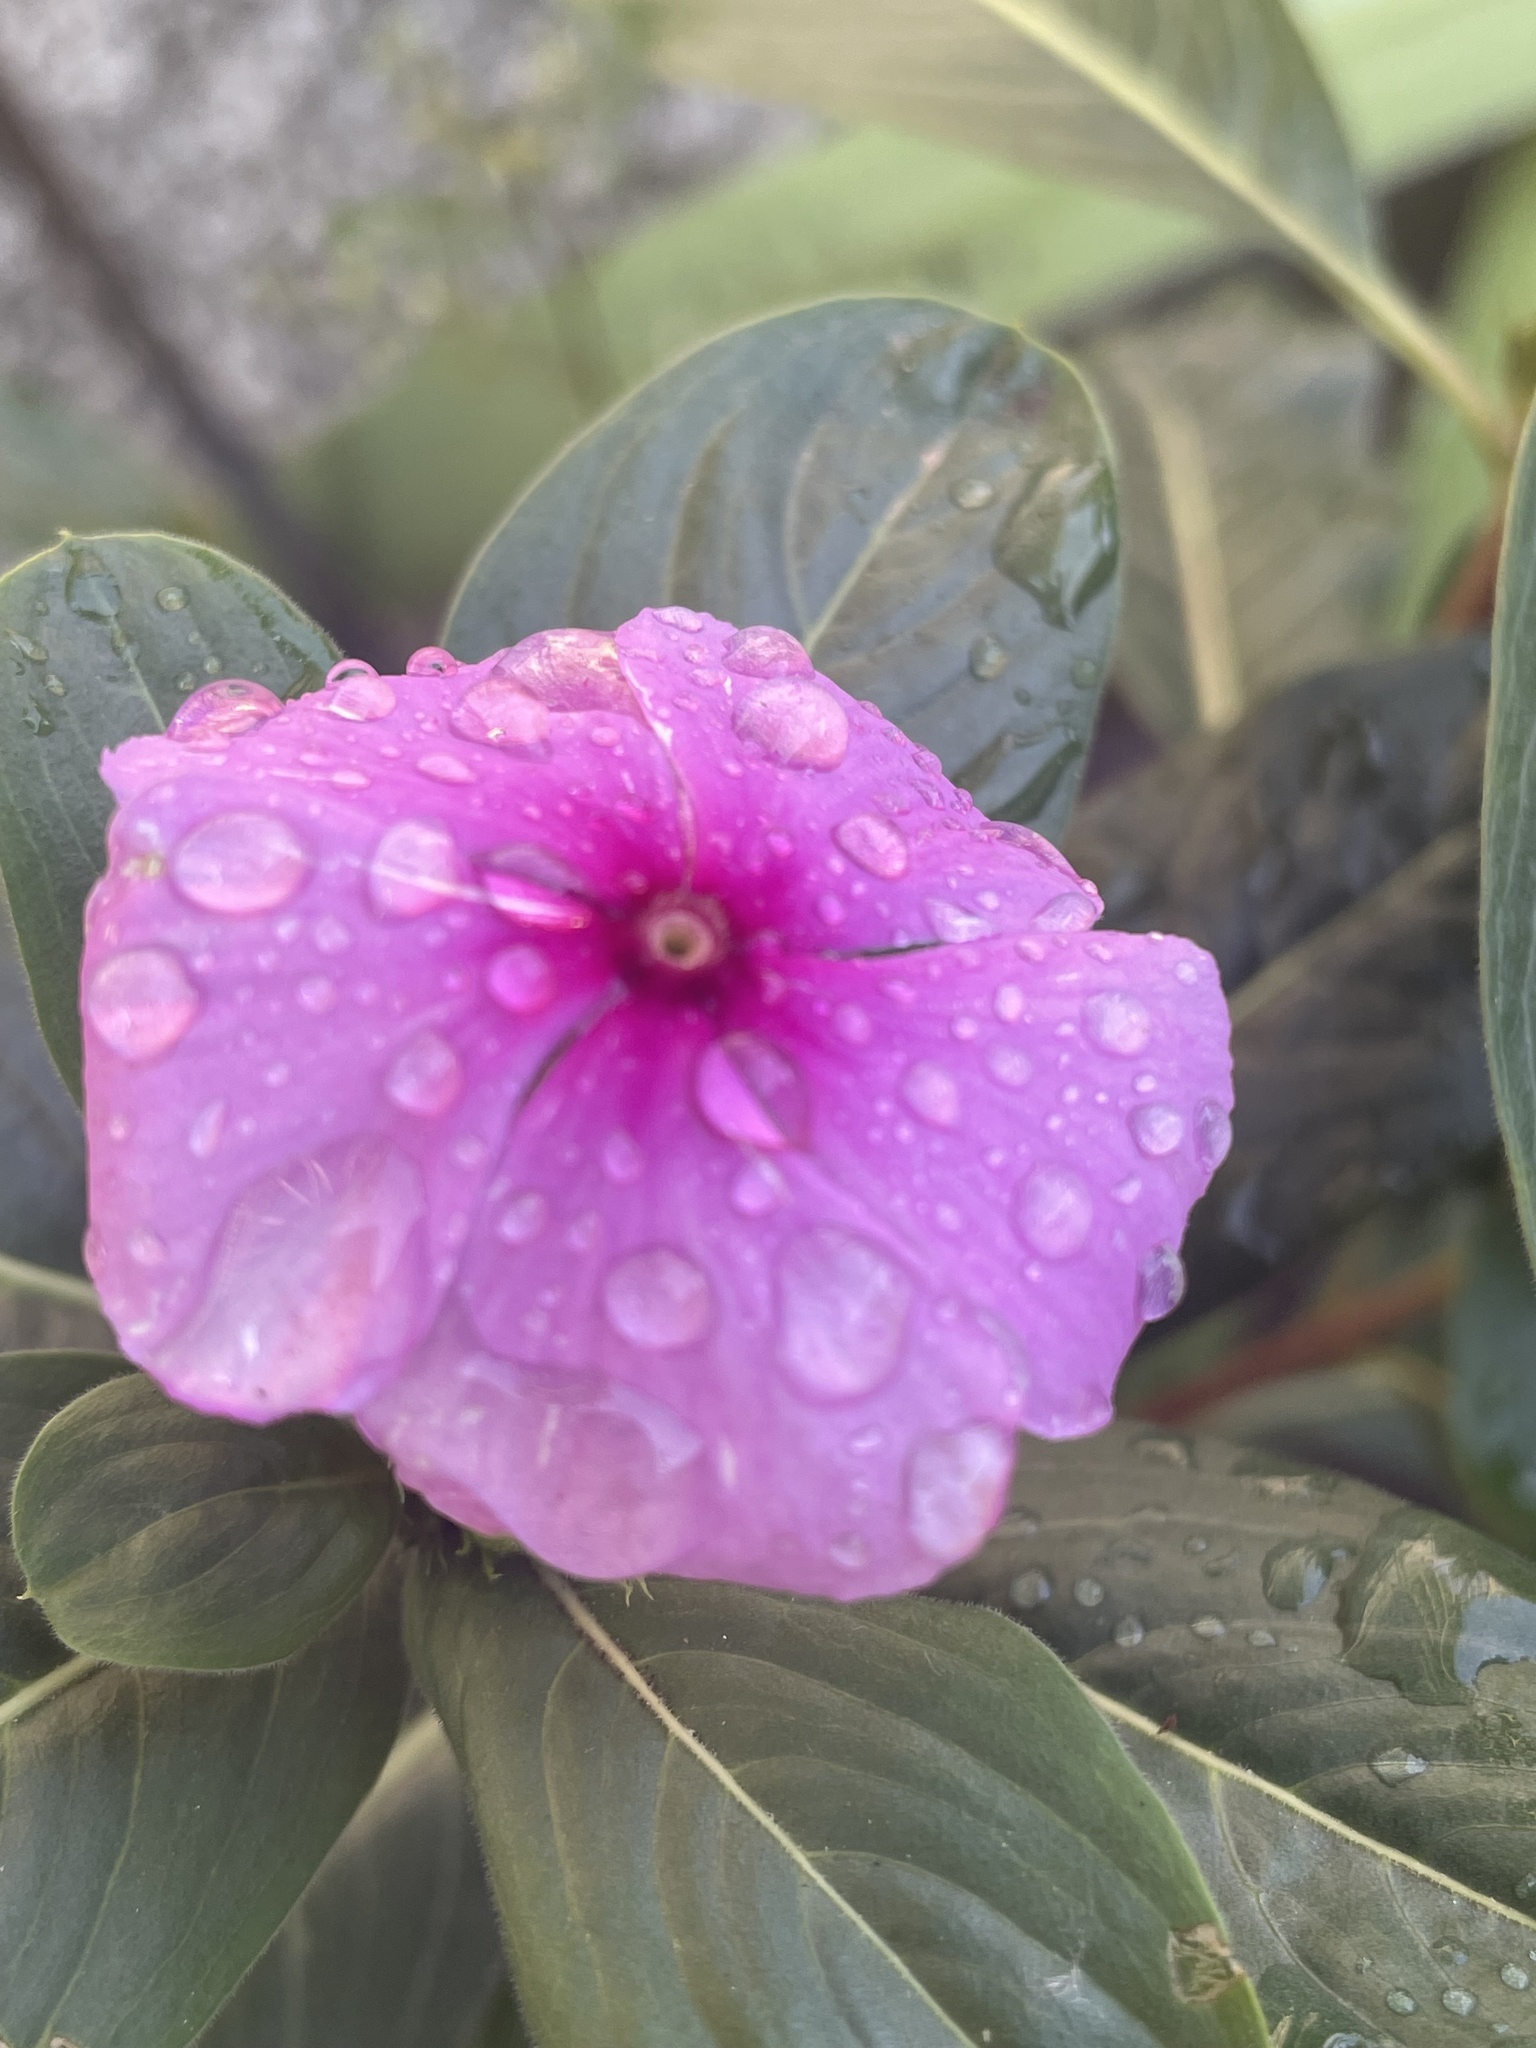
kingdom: Plantae
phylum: Tracheophyta
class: Magnoliopsida
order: Gentianales
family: Apocynaceae
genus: Catharanthus
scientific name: Catharanthus roseus
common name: Madagascar periwinkle
